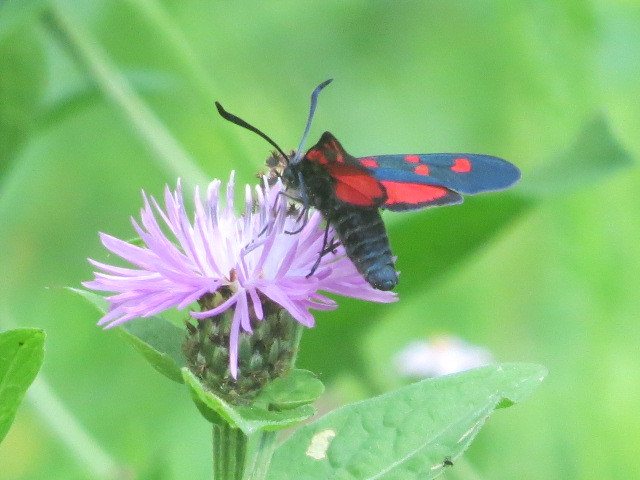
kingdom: Animalia
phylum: Arthropoda
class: Insecta
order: Lepidoptera
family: Zygaenidae
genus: Zygaena
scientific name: Zygaena lonicerae
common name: Narrow-bordered five-spot burnet
